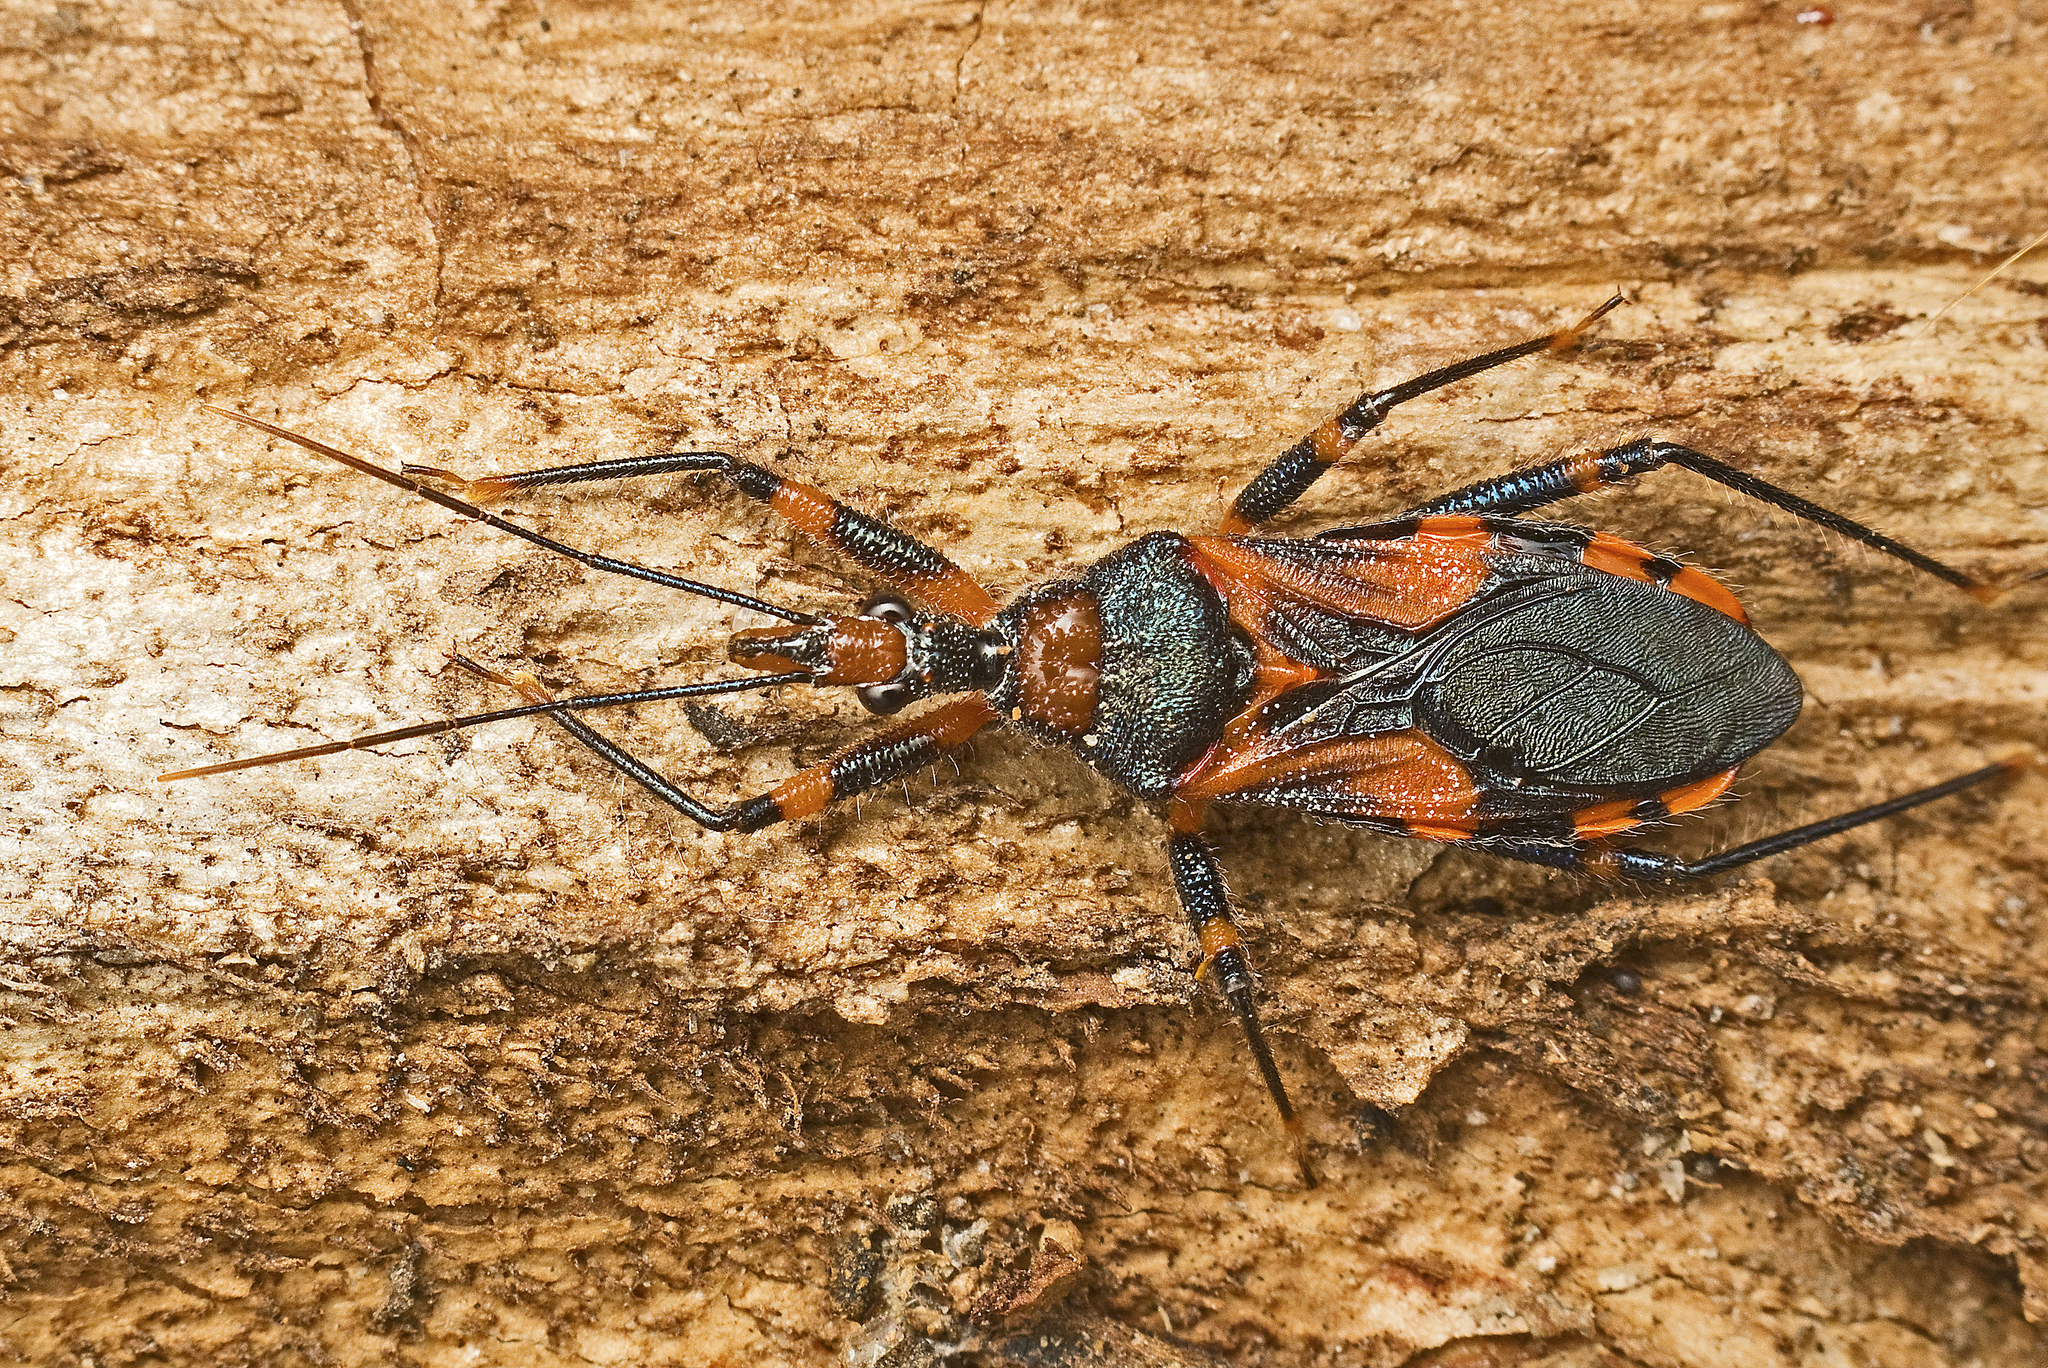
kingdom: Animalia
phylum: Arthropoda
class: Insecta
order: Hemiptera
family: Reduviidae
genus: Havinthus
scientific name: Havinthus rufovarius
